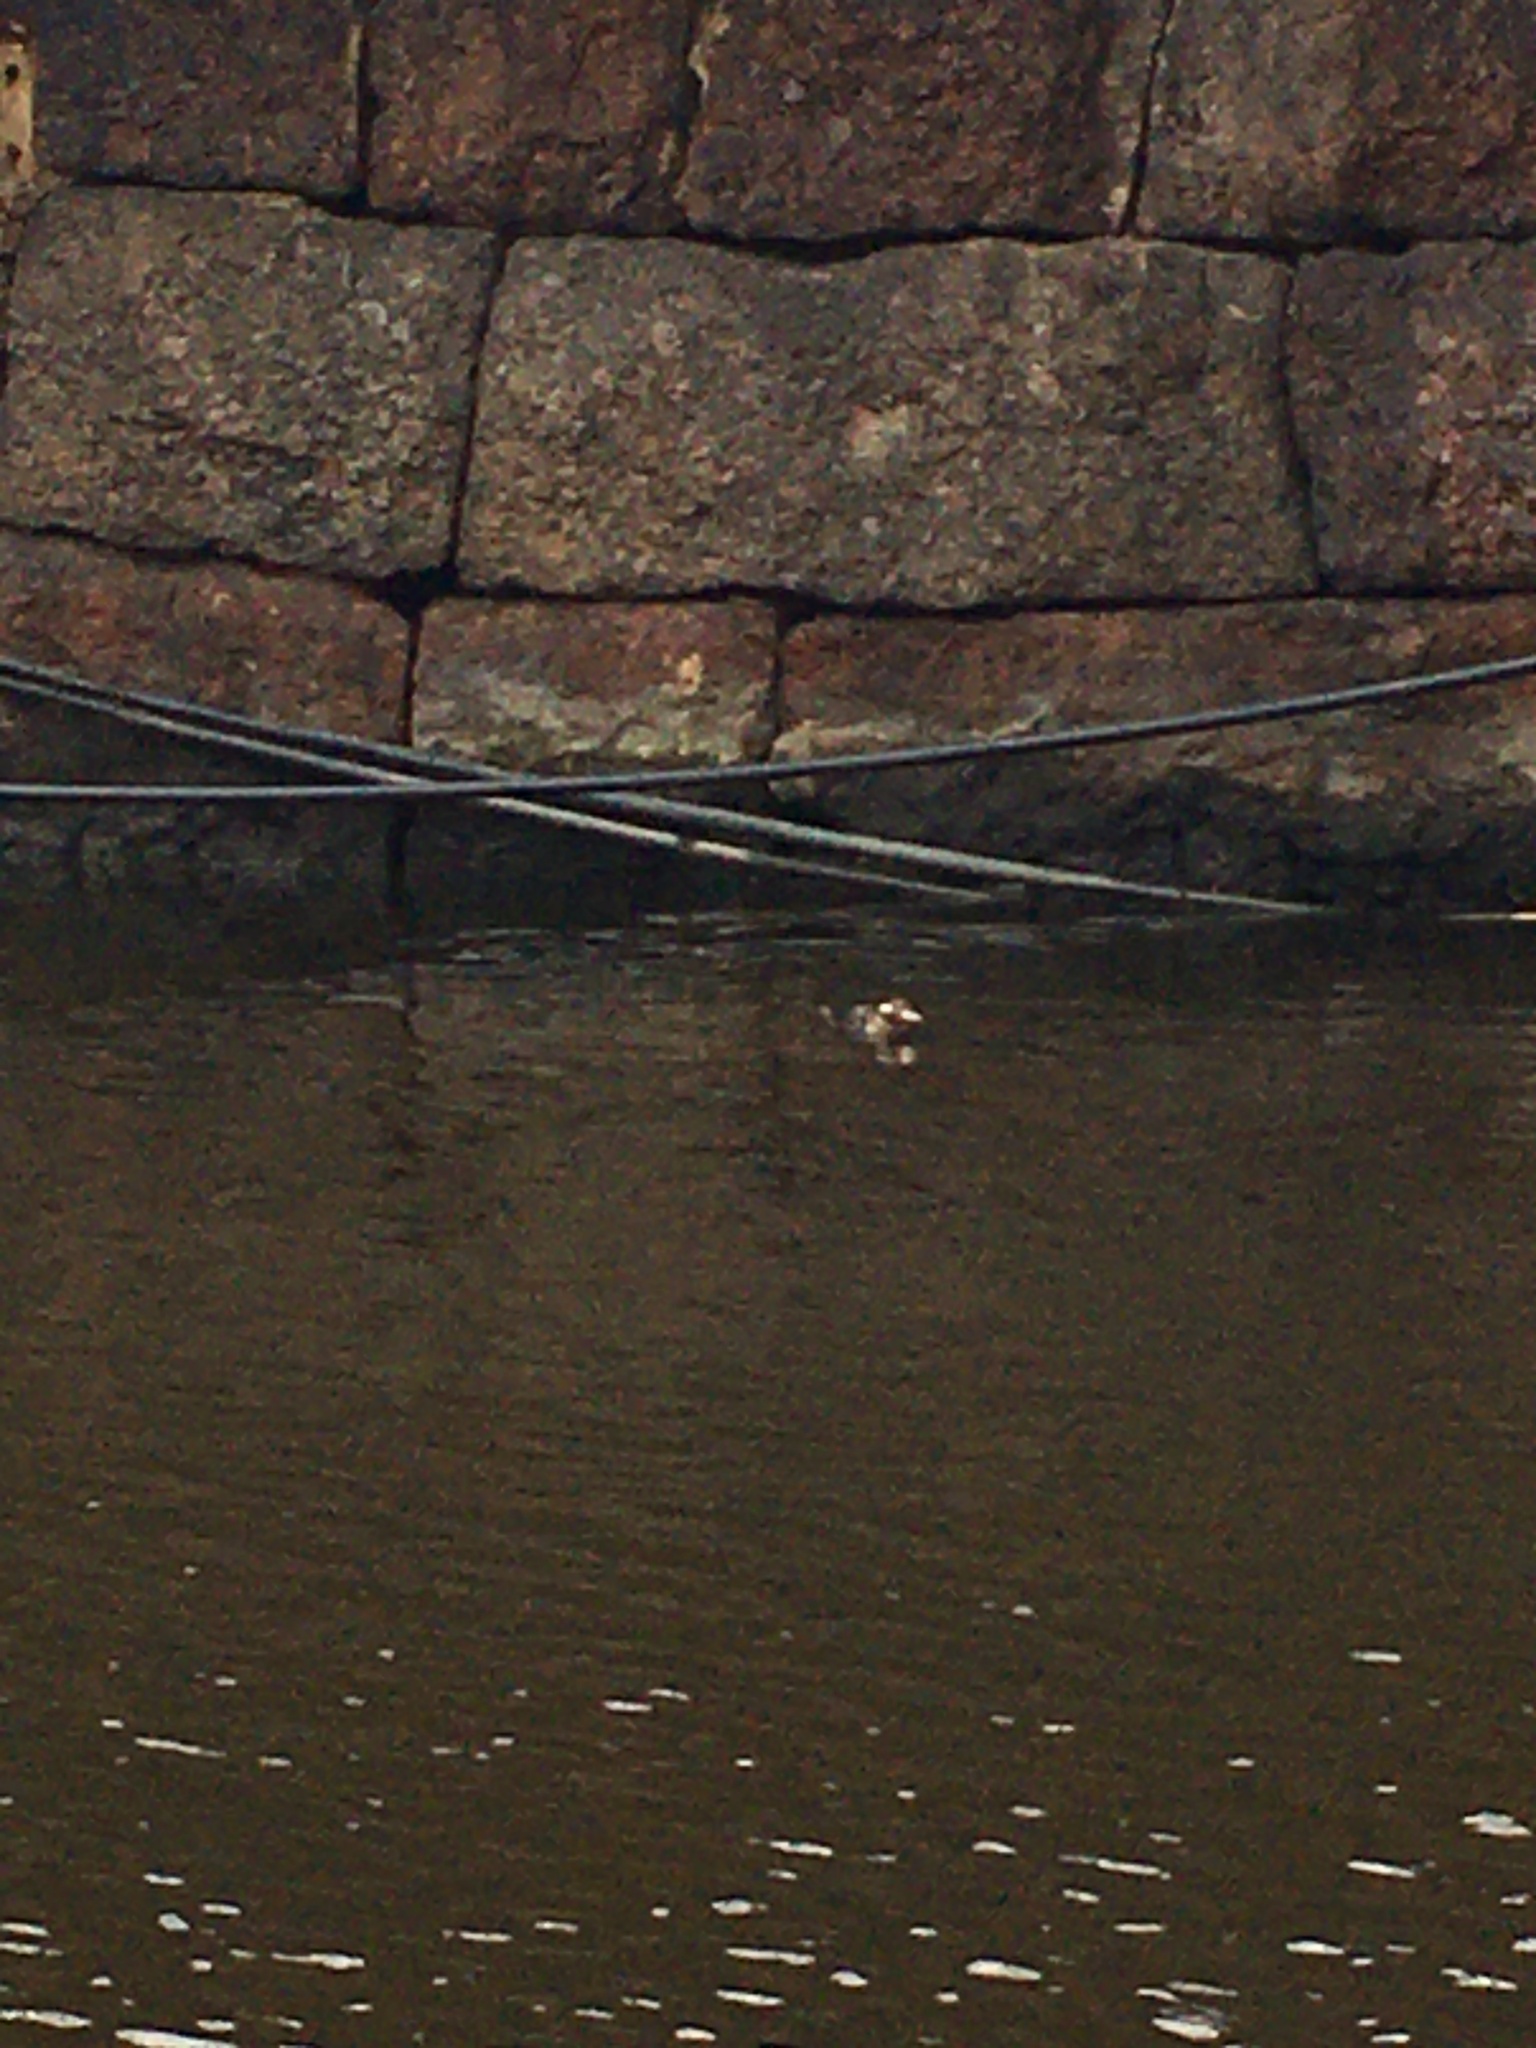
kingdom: Animalia
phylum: Chordata
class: Aves
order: Anseriformes
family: Anatidae
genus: Clangula
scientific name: Clangula hyemalis
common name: Long-tailed duck
